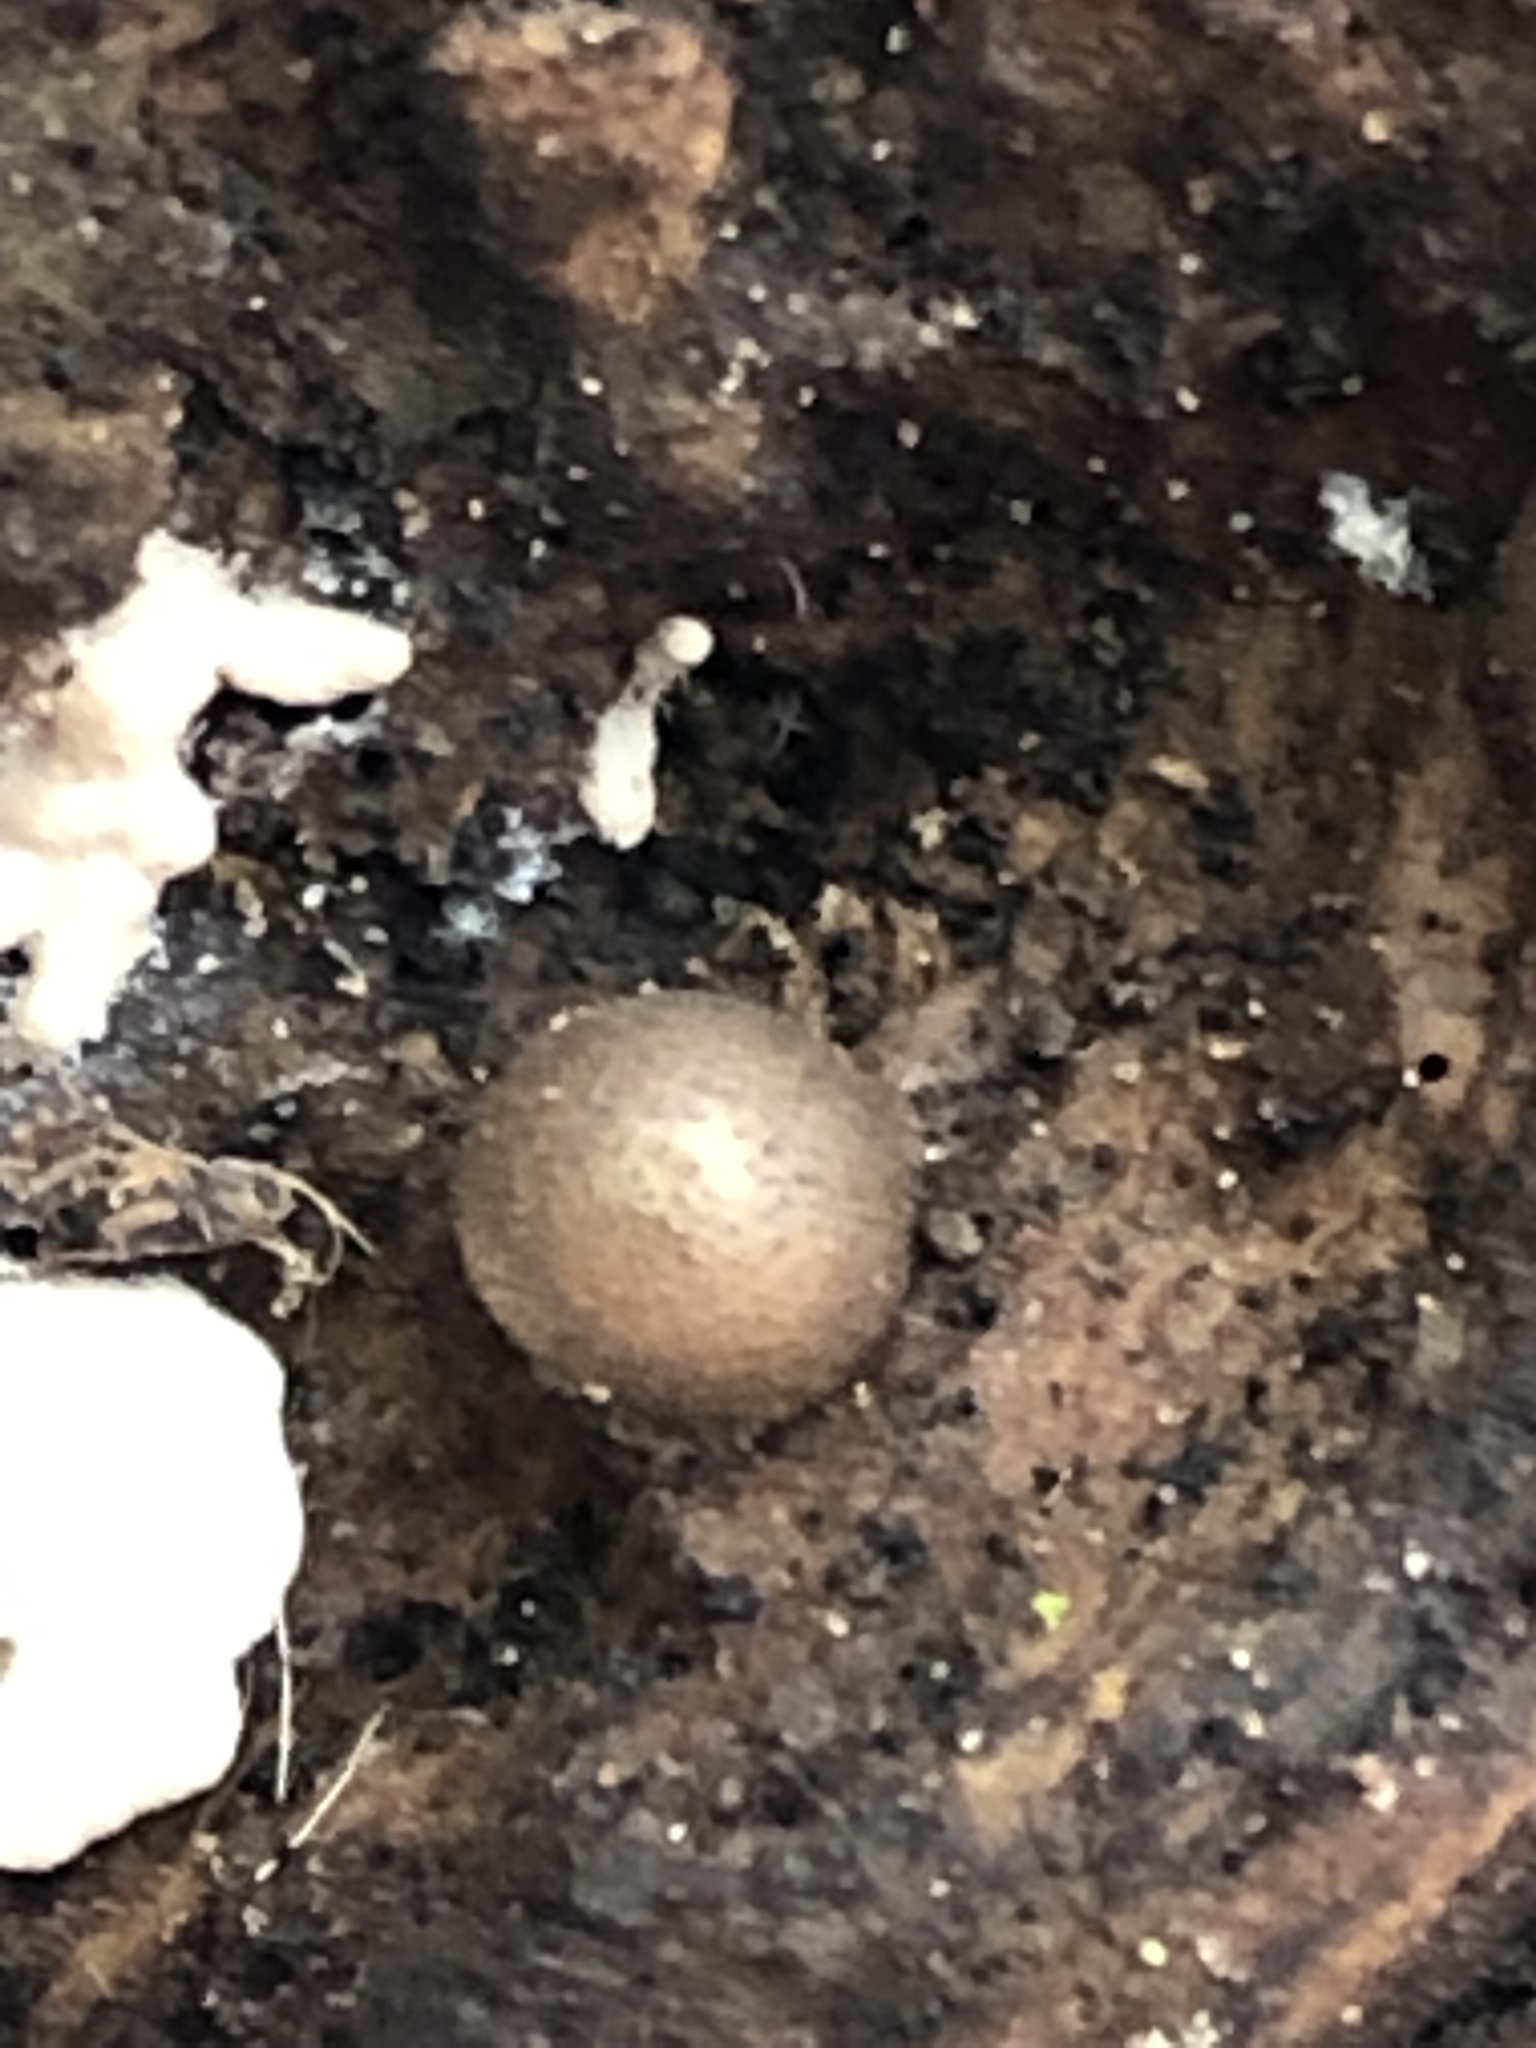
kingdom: Protozoa
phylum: Mycetozoa
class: Myxomycetes
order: Cribrariales
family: Tubiferaceae
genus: Lycogala
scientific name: Lycogala epidendrum
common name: Wolf's milk
